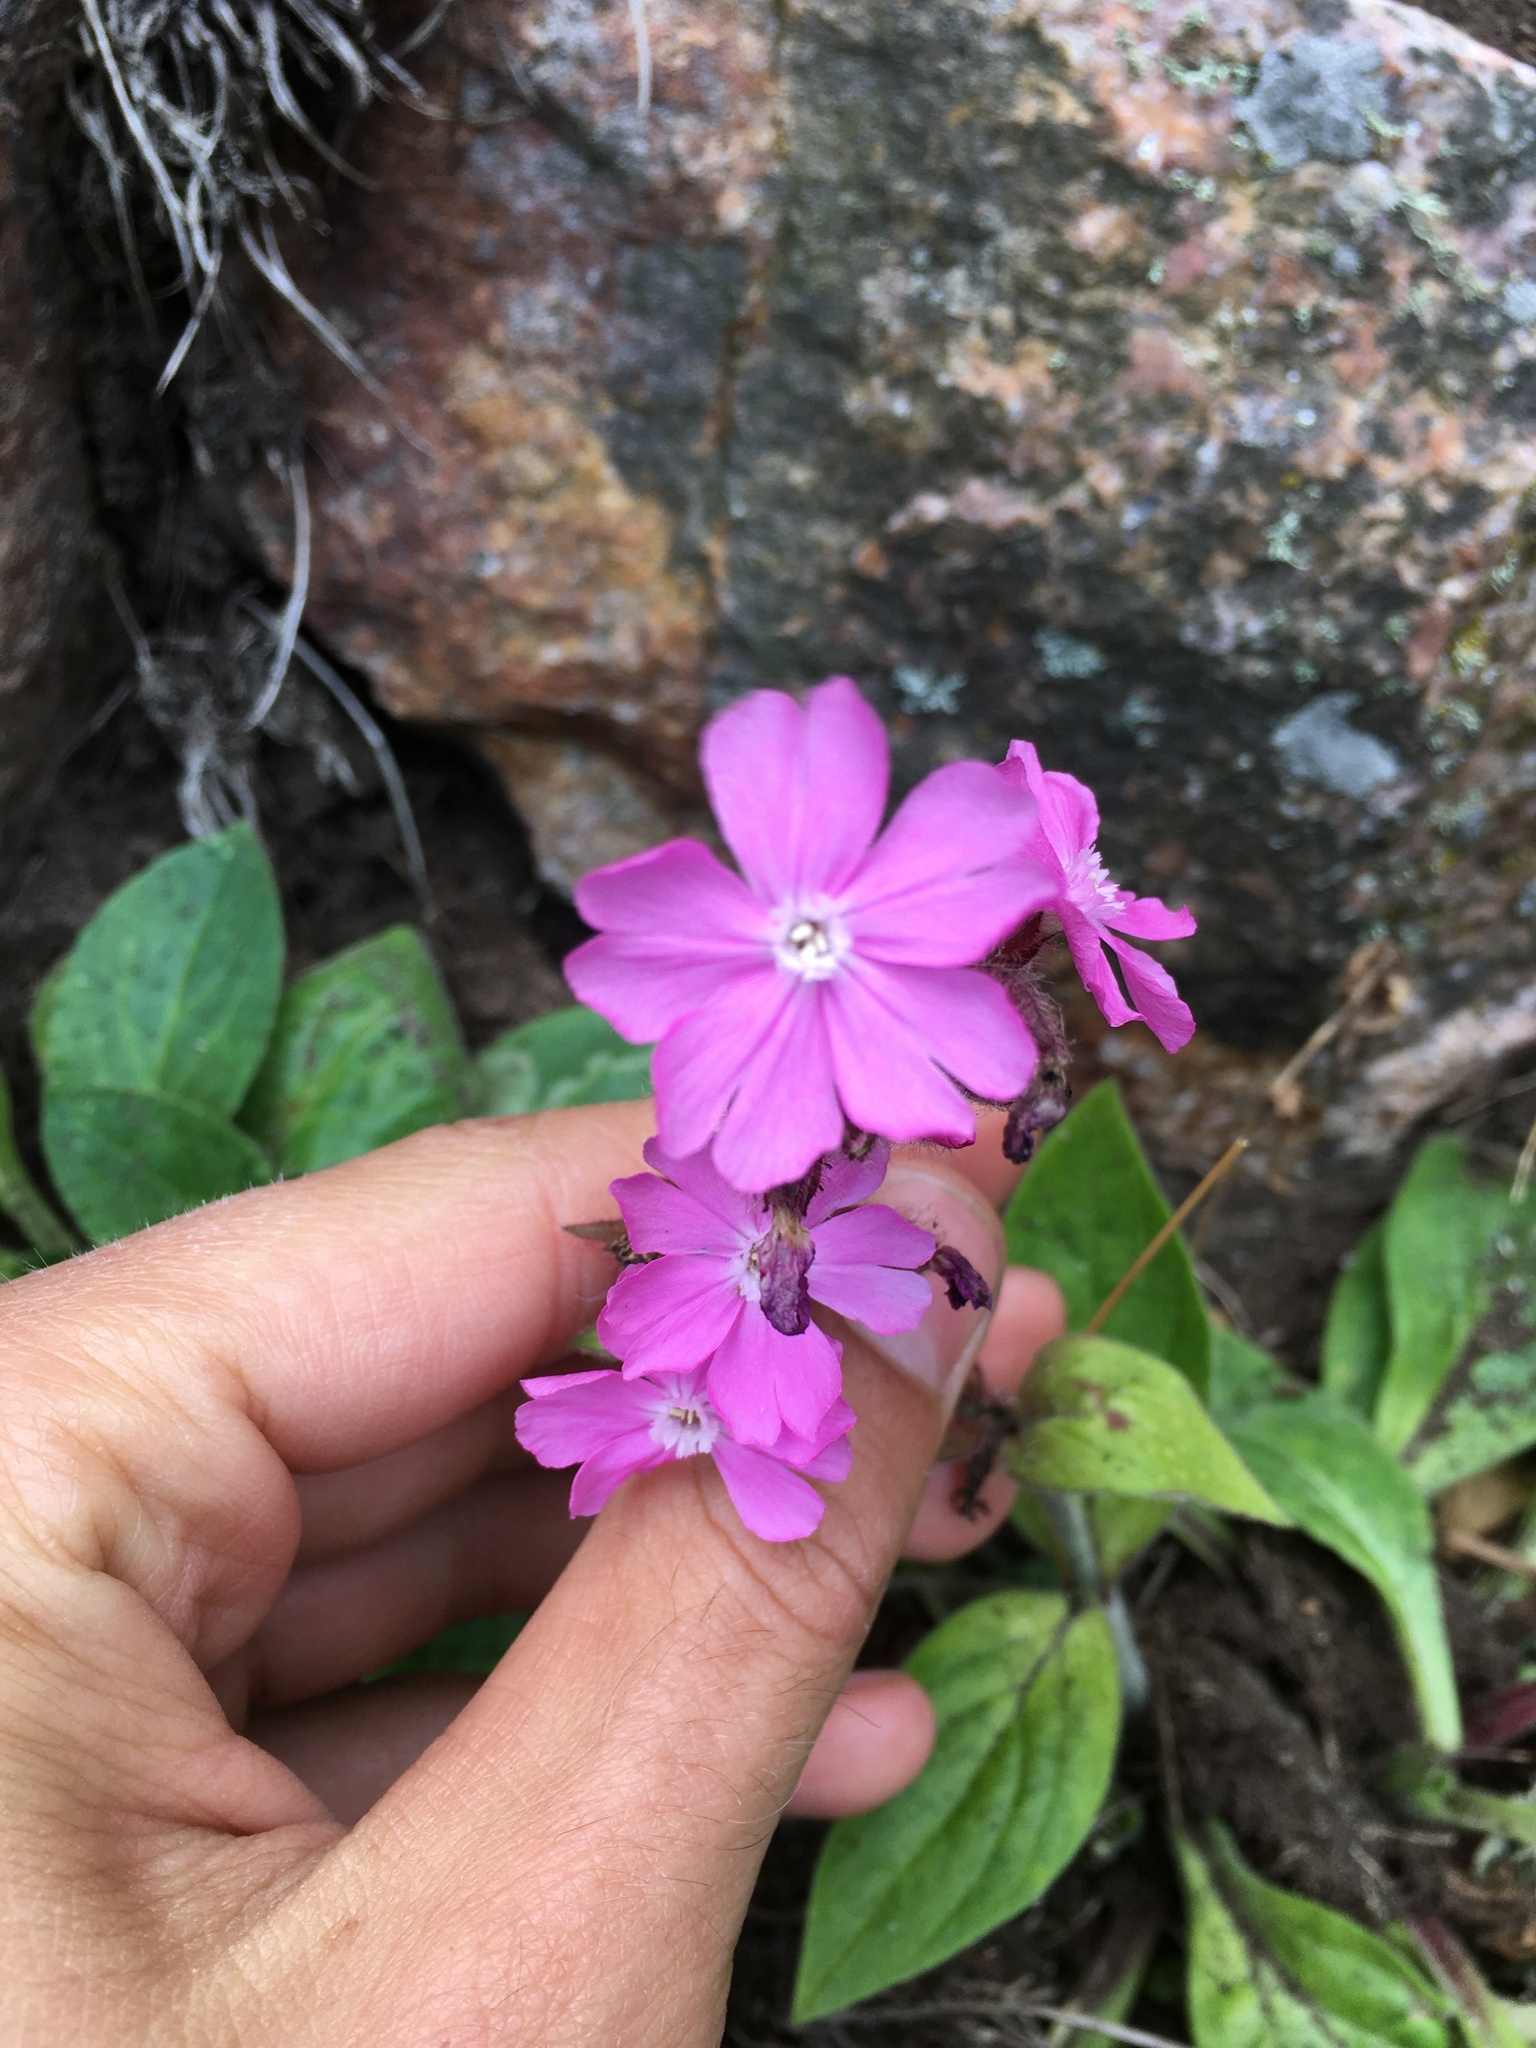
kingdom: Plantae
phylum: Tracheophyta
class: Magnoliopsida
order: Caryophyllales
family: Caryophyllaceae
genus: Silene
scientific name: Silene dioica
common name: Red campion
